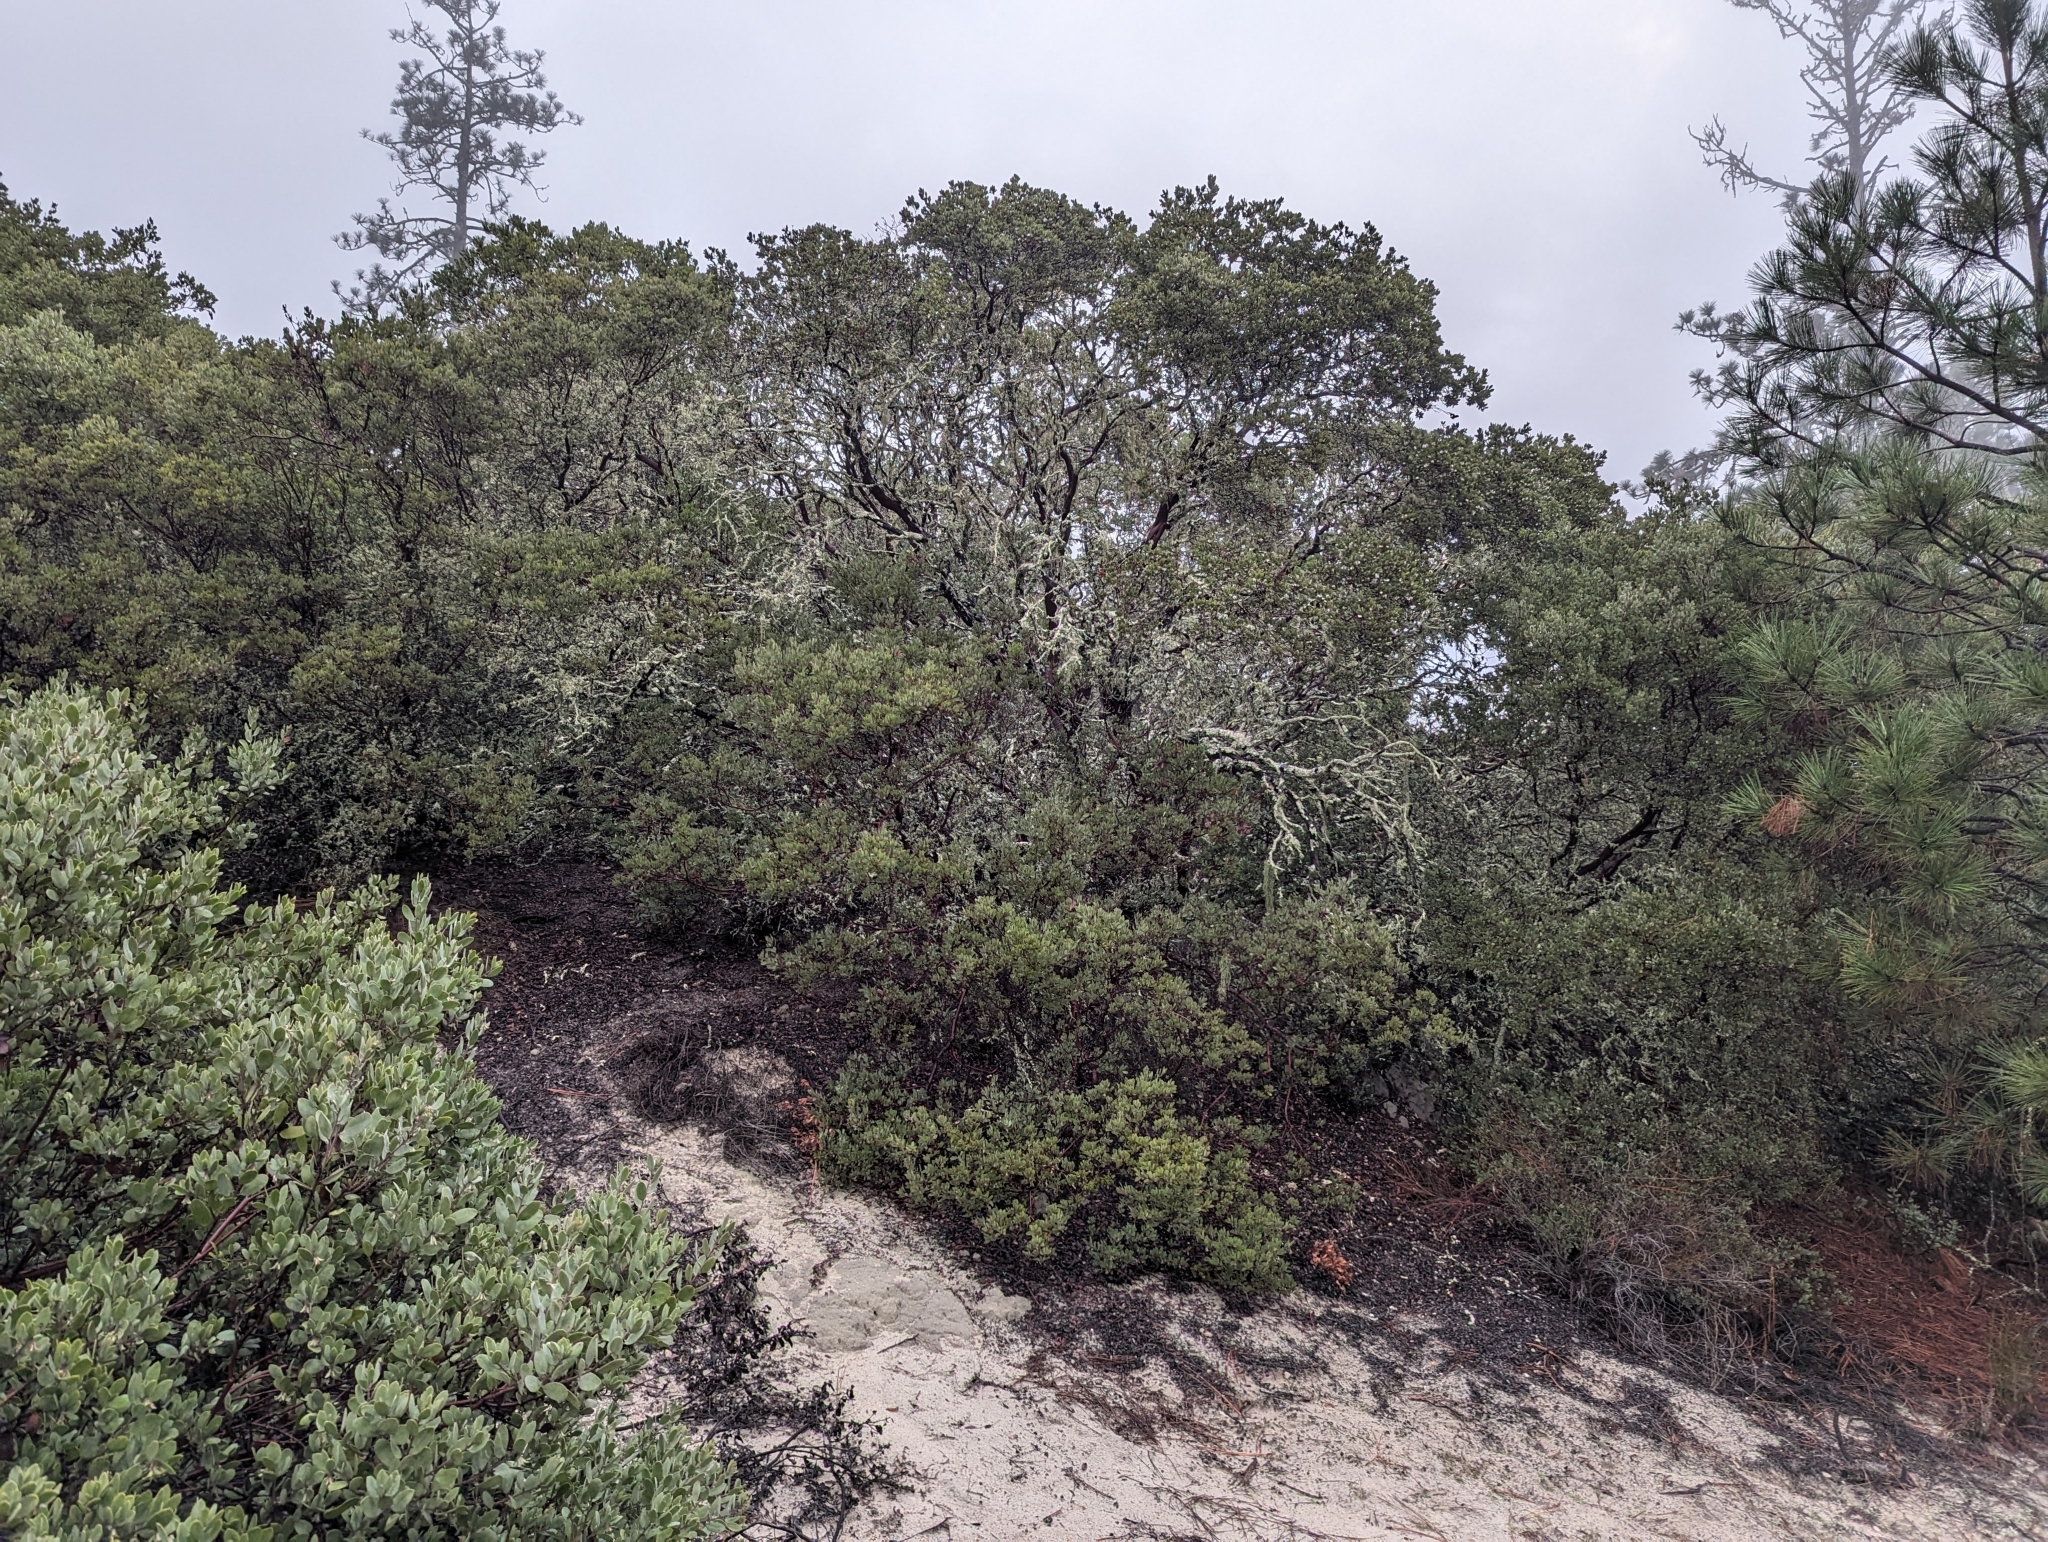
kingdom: Plantae
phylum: Tracheophyta
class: Magnoliopsida
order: Ericales
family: Ericaceae
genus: Arctostaphylos
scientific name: Arctostaphylos silvicola
